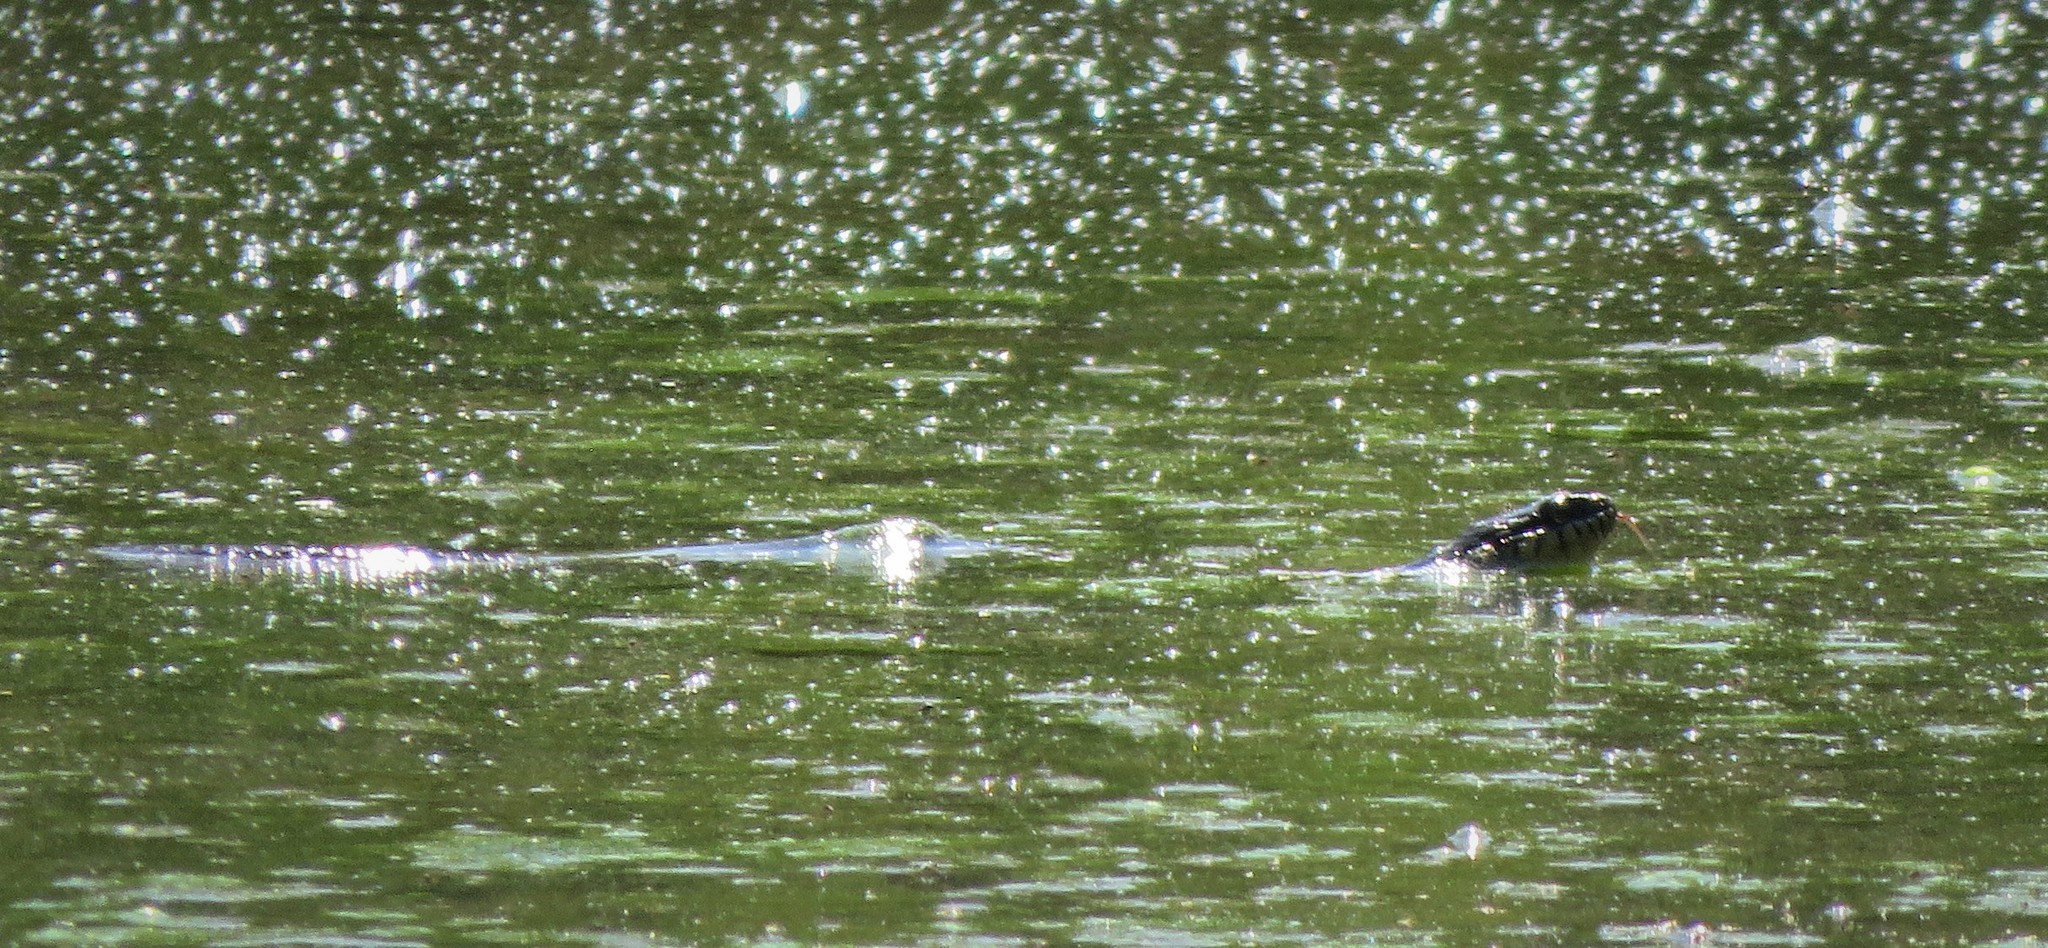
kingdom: Animalia
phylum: Chordata
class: Squamata
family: Colubridae
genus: Nerodia
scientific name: Nerodia
